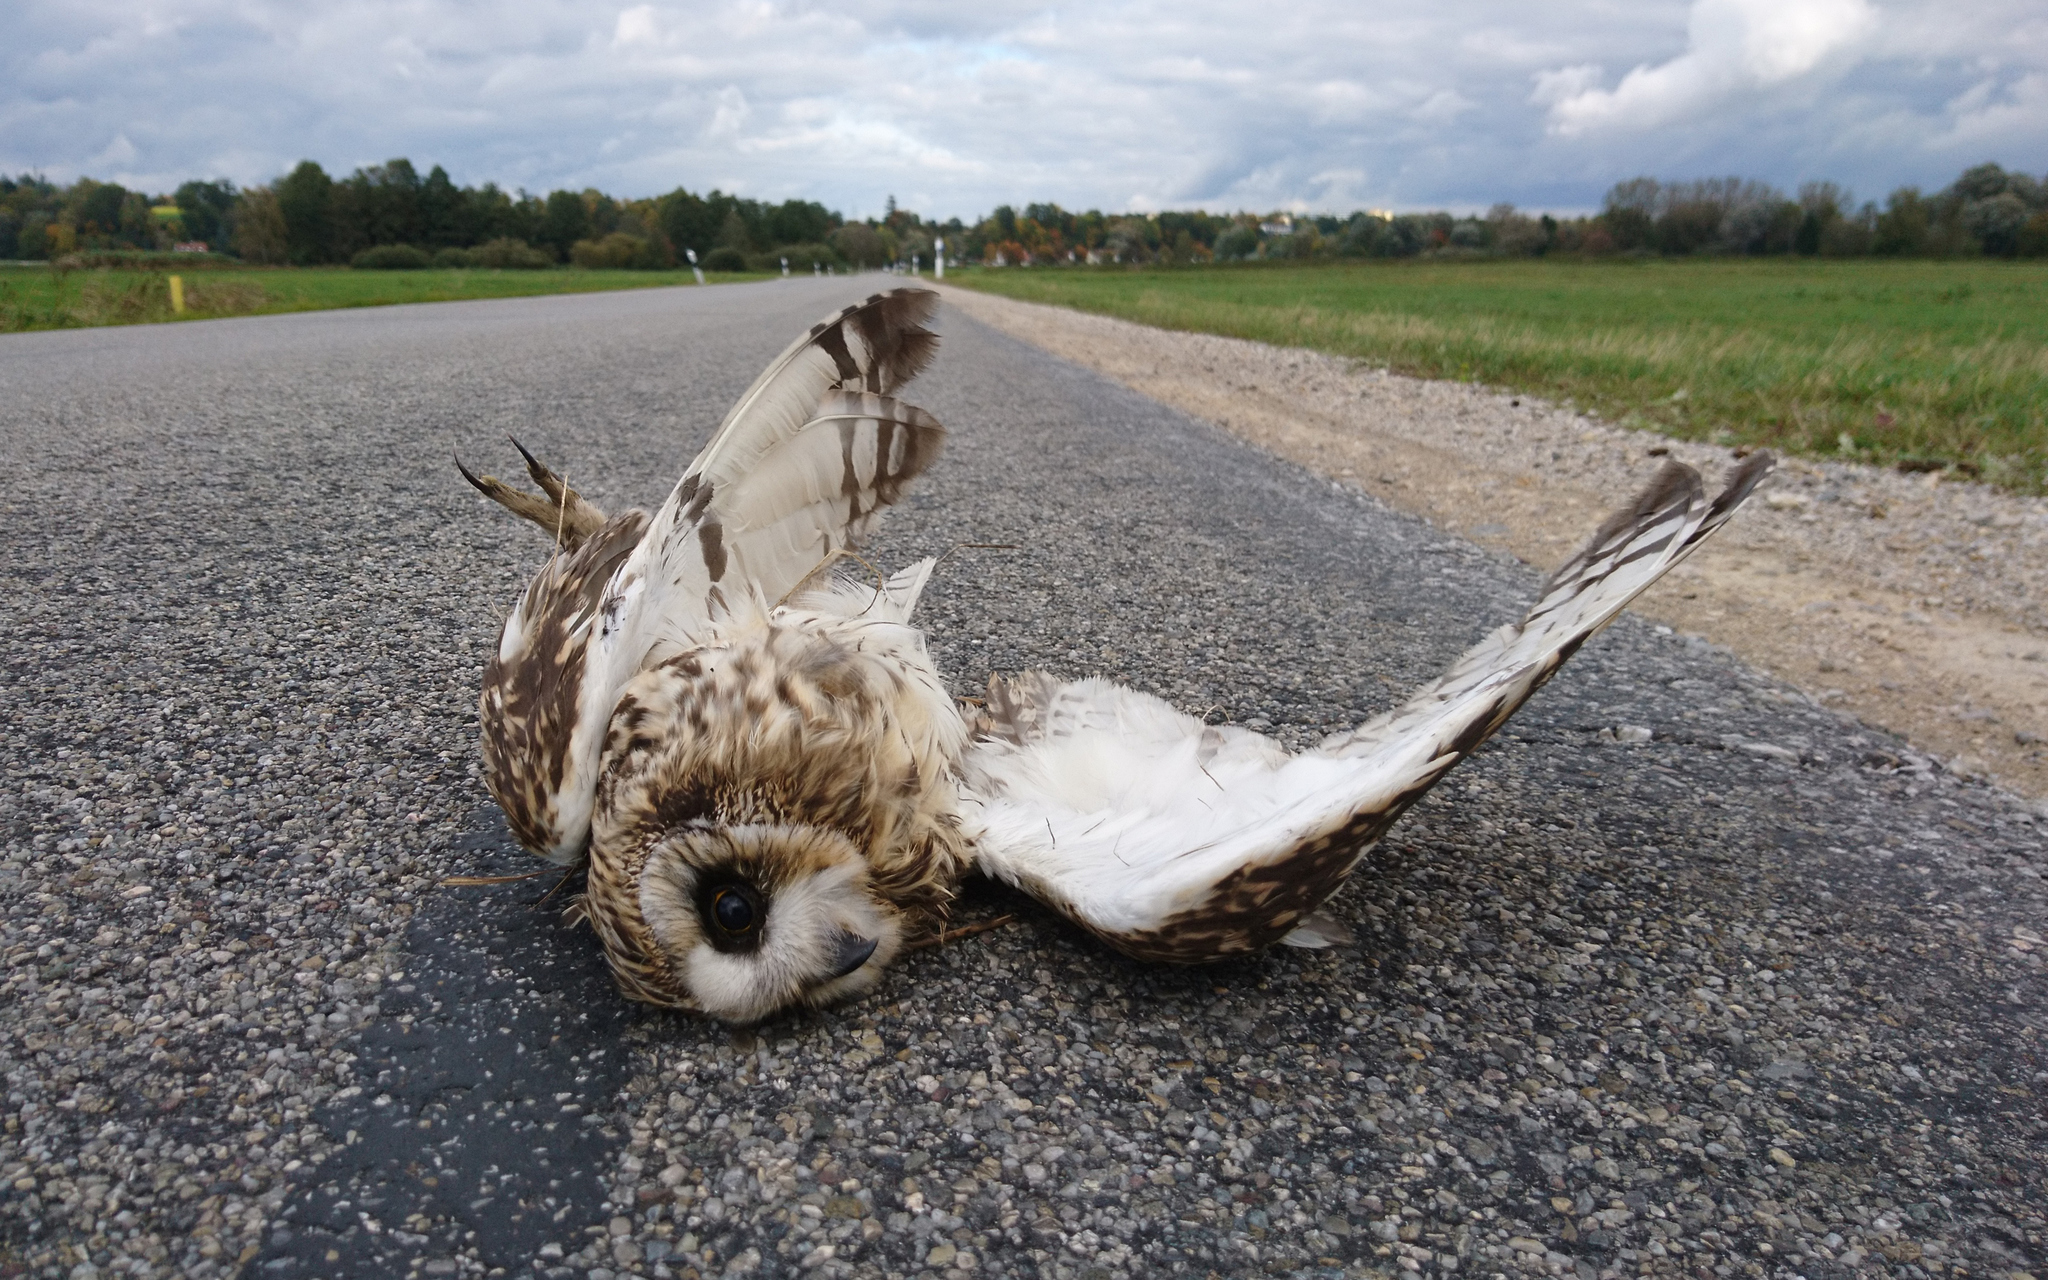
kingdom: Animalia
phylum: Chordata
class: Aves
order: Strigiformes
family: Strigidae
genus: Asio
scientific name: Asio flammeus
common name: Short-eared owl
